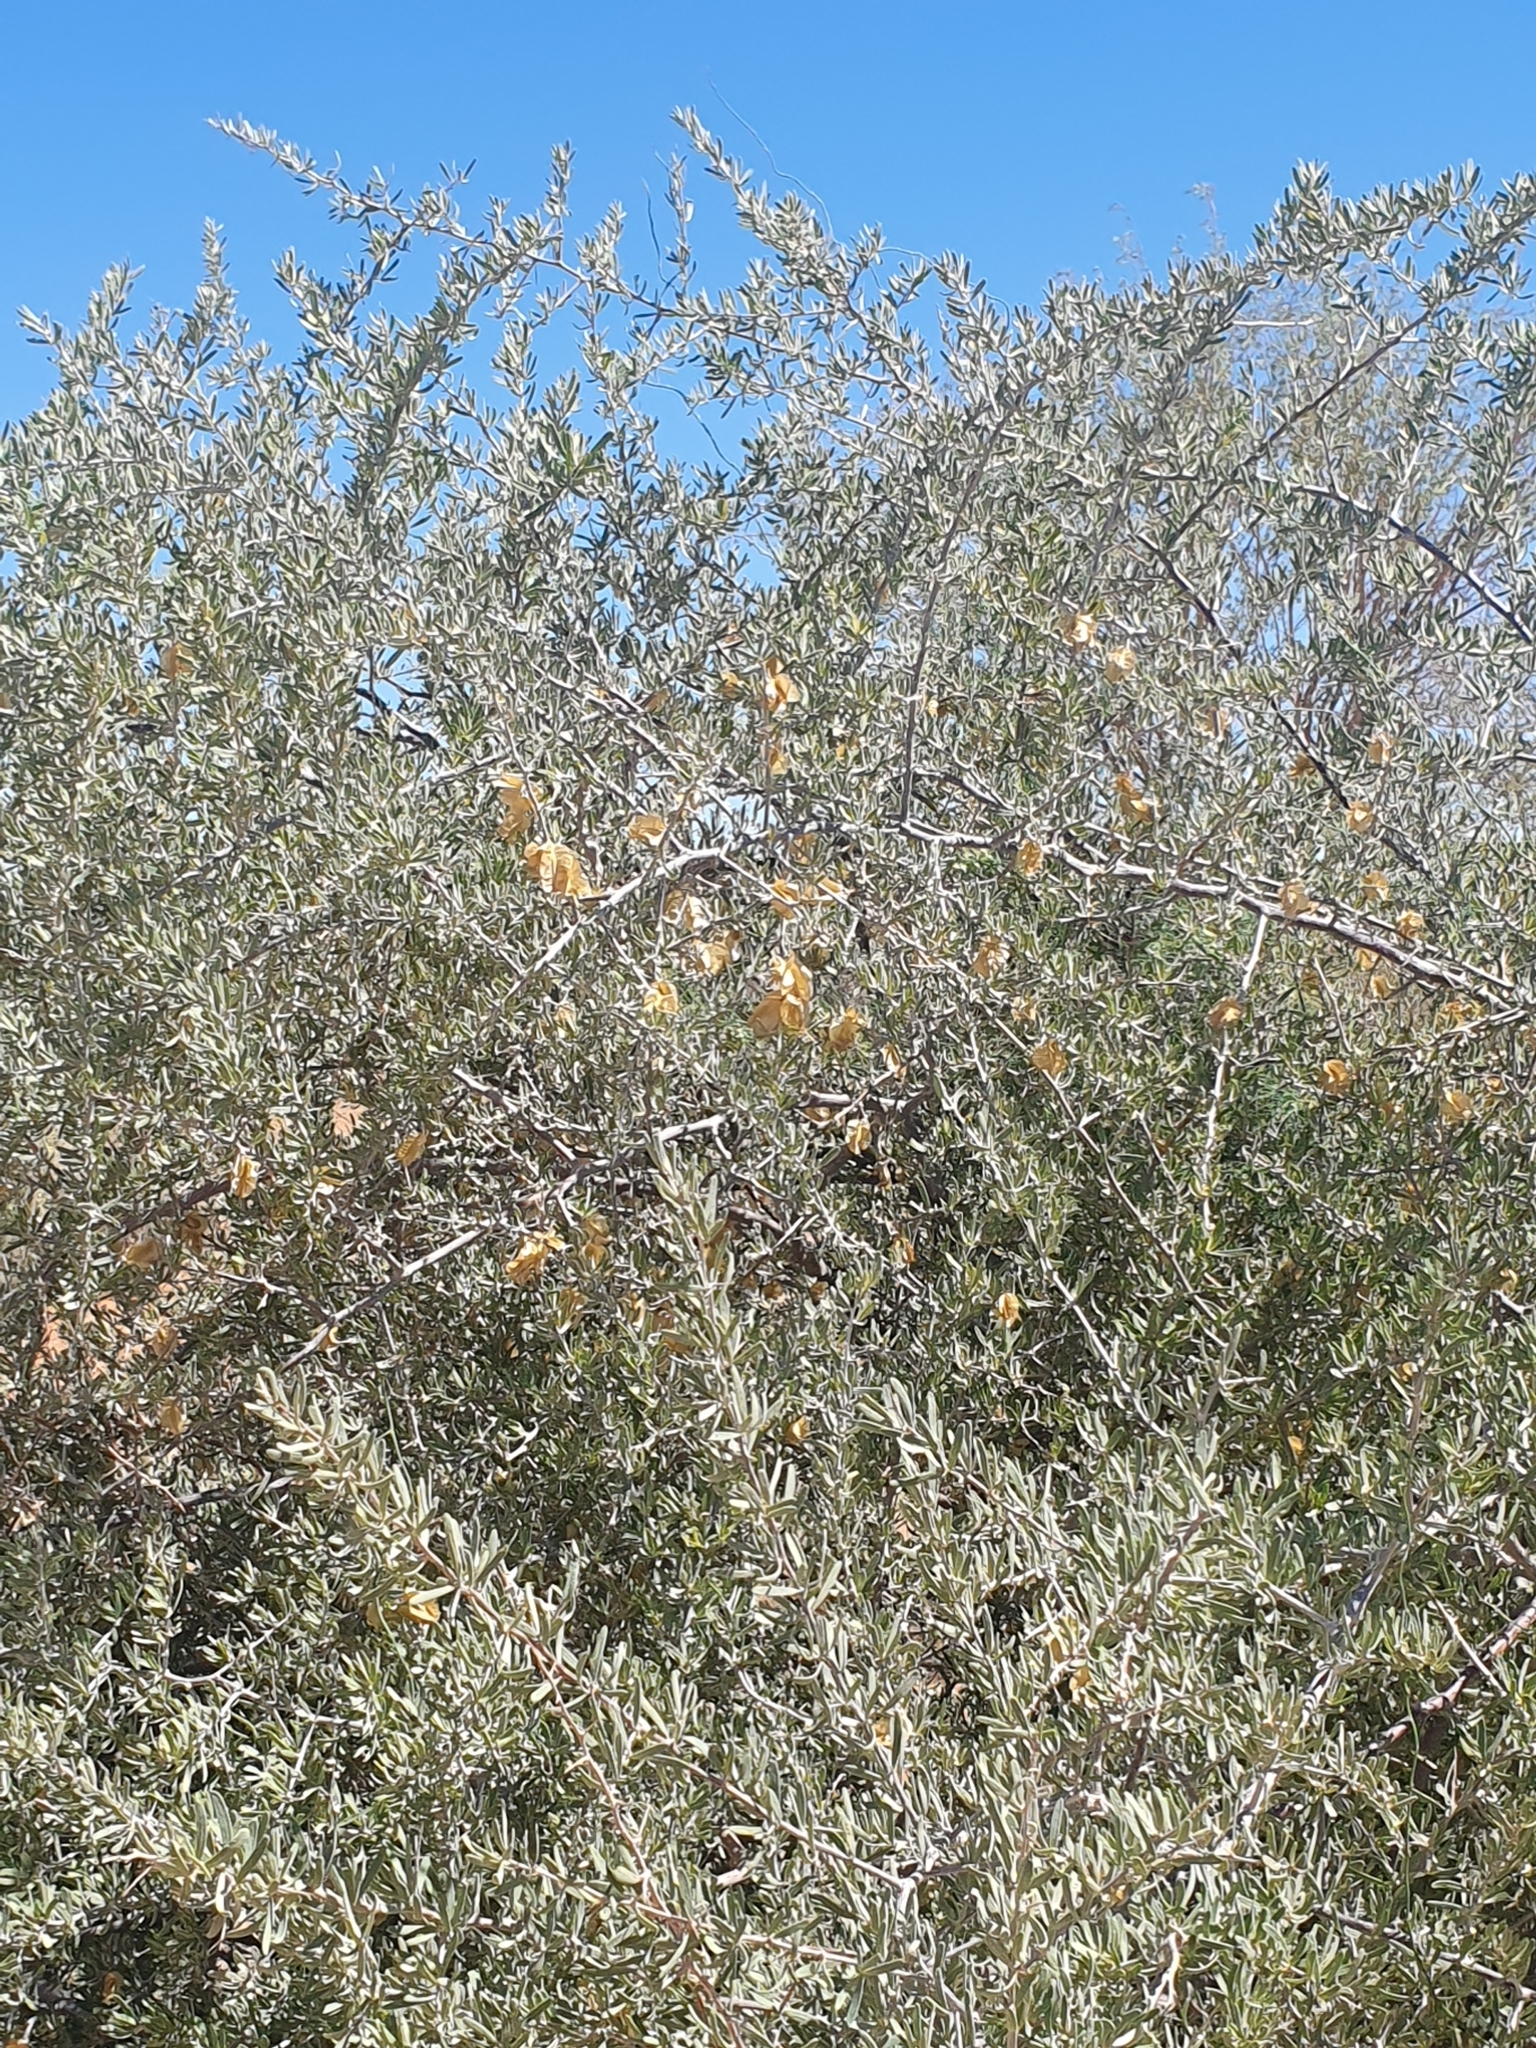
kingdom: Plantae
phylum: Tracheophyta
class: Magnoliopsida
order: Caryophyllales
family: Nyctaginaceae
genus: Phaeoptilum
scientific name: Phaeoptilum spinosum
